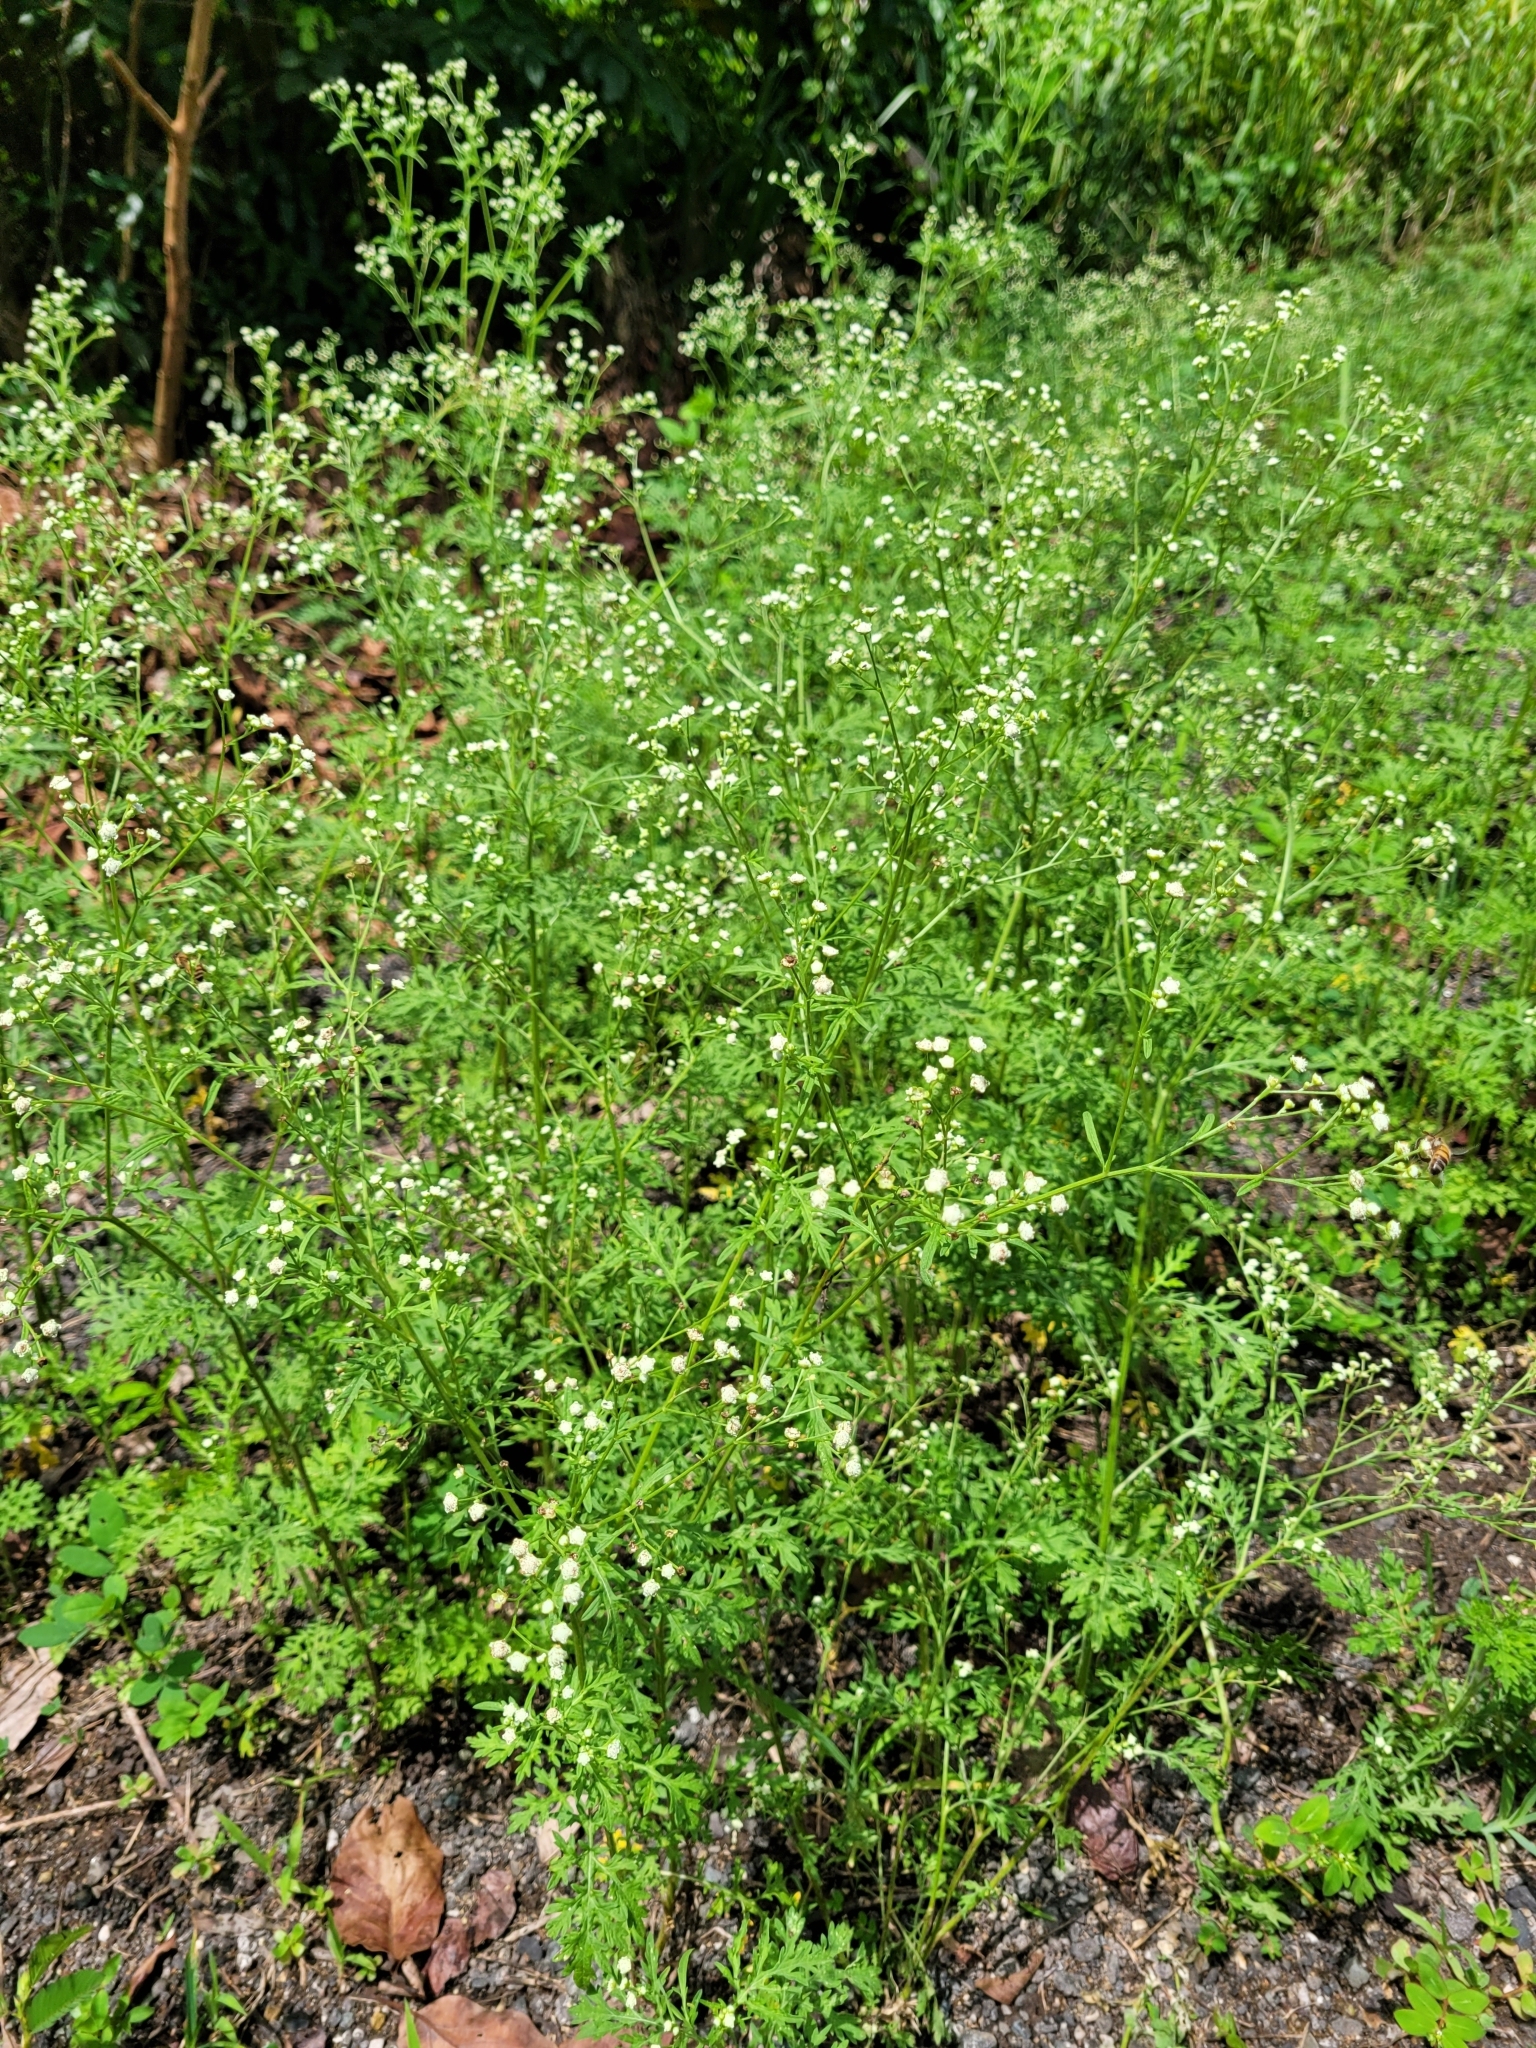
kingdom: Plantae
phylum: Tracheophyta
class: Magnoliopsida
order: Asterales
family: Asteraceae
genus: Parthenium
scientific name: Parthenium hysterophorus
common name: Santa maria feverfew
